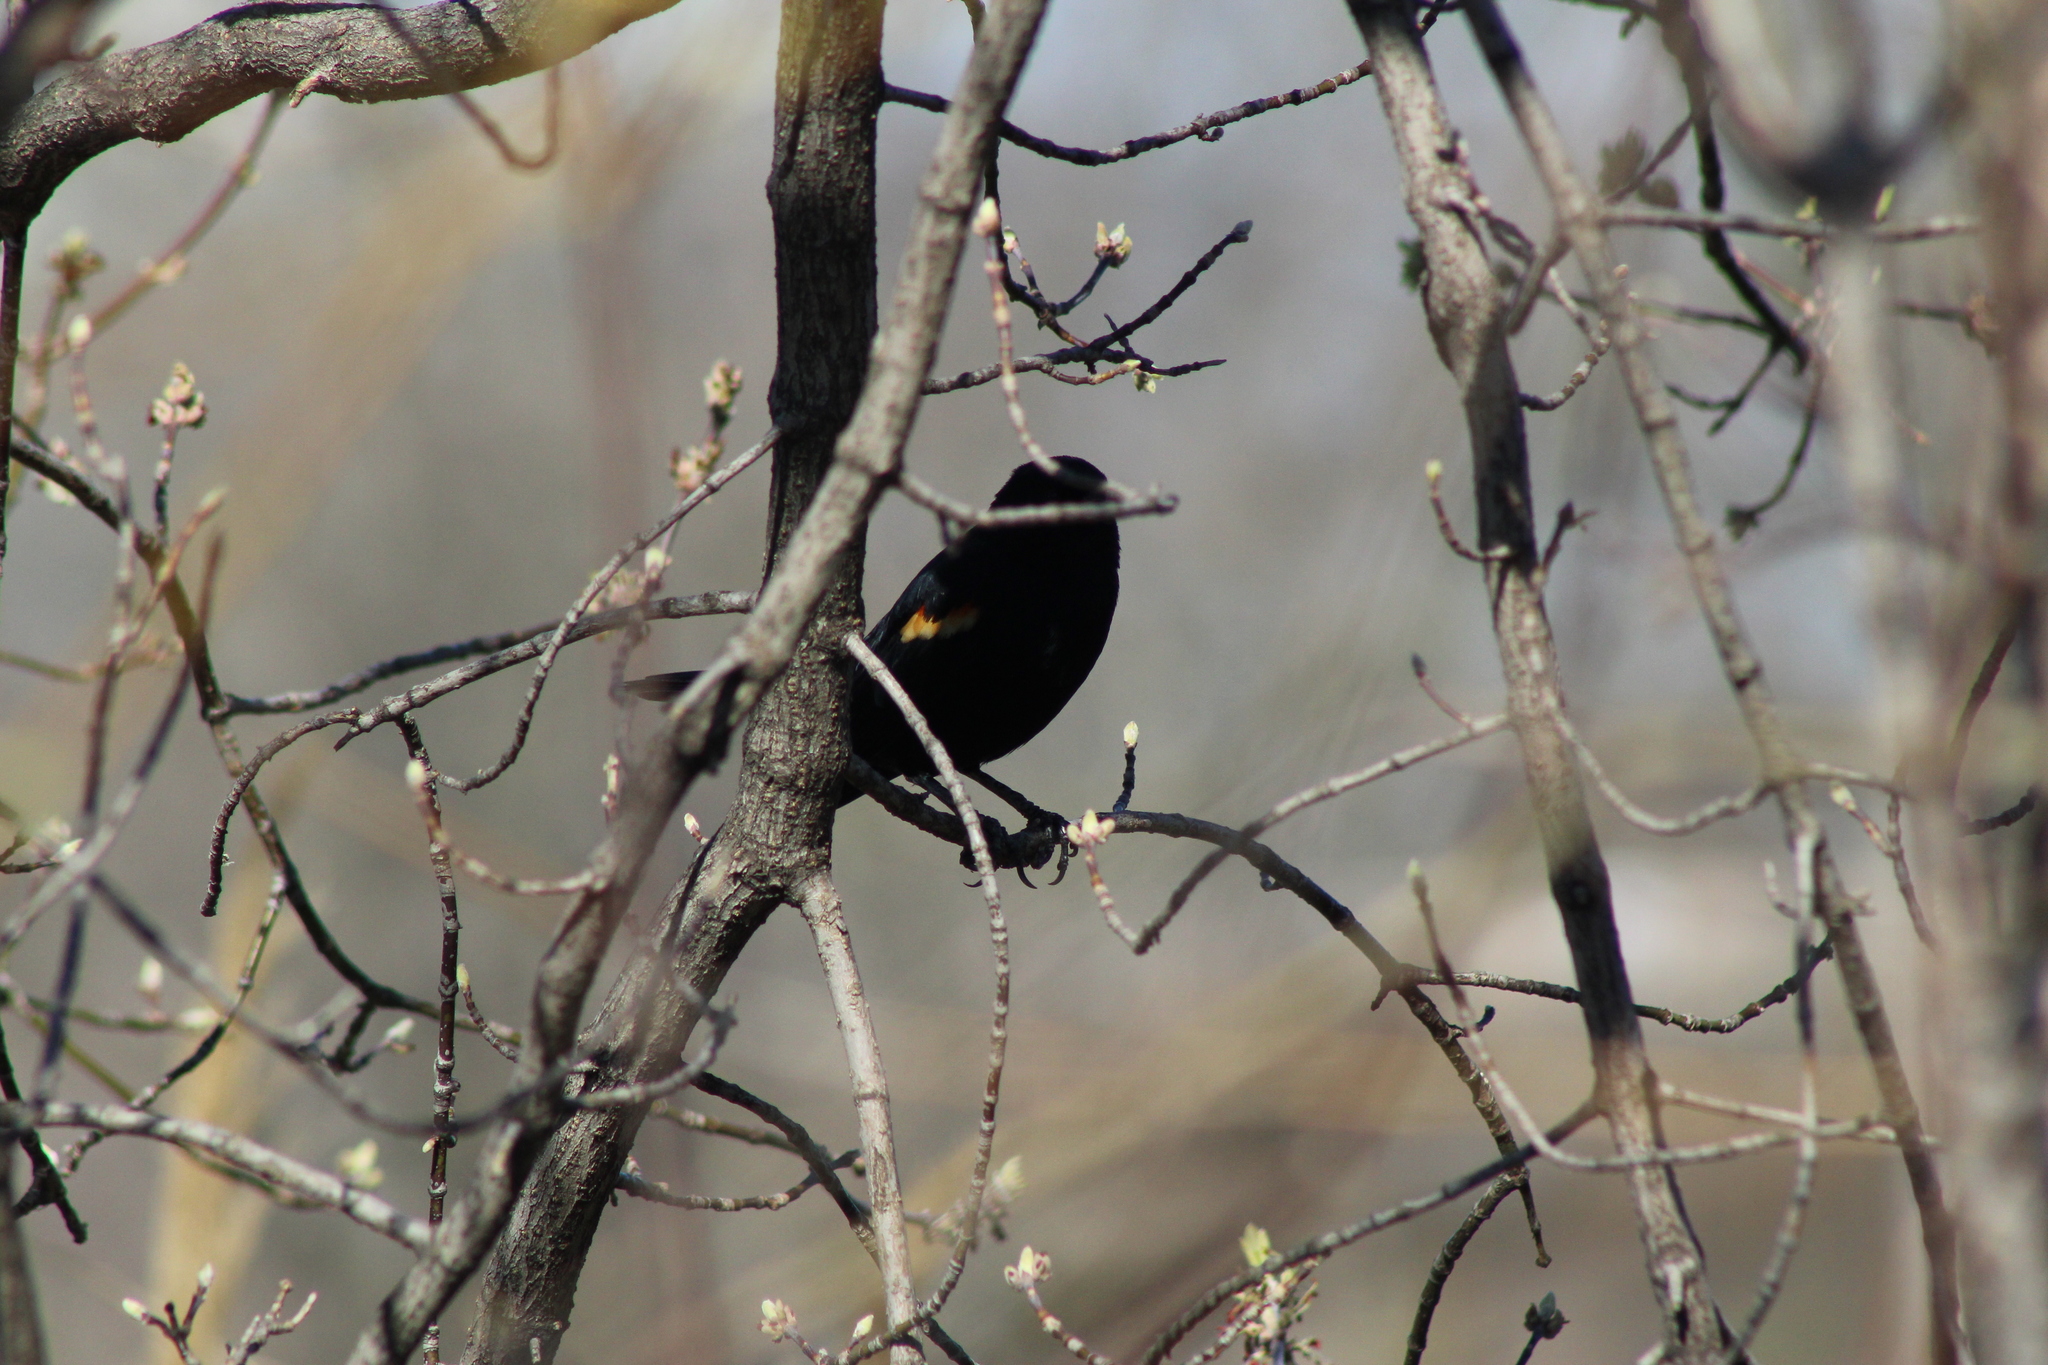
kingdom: Animalia
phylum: Chordata
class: Aves
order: Passeriformes
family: Icteridae
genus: Agelaius
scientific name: Agelaius phoeniceus
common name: Red-winged blackbird
